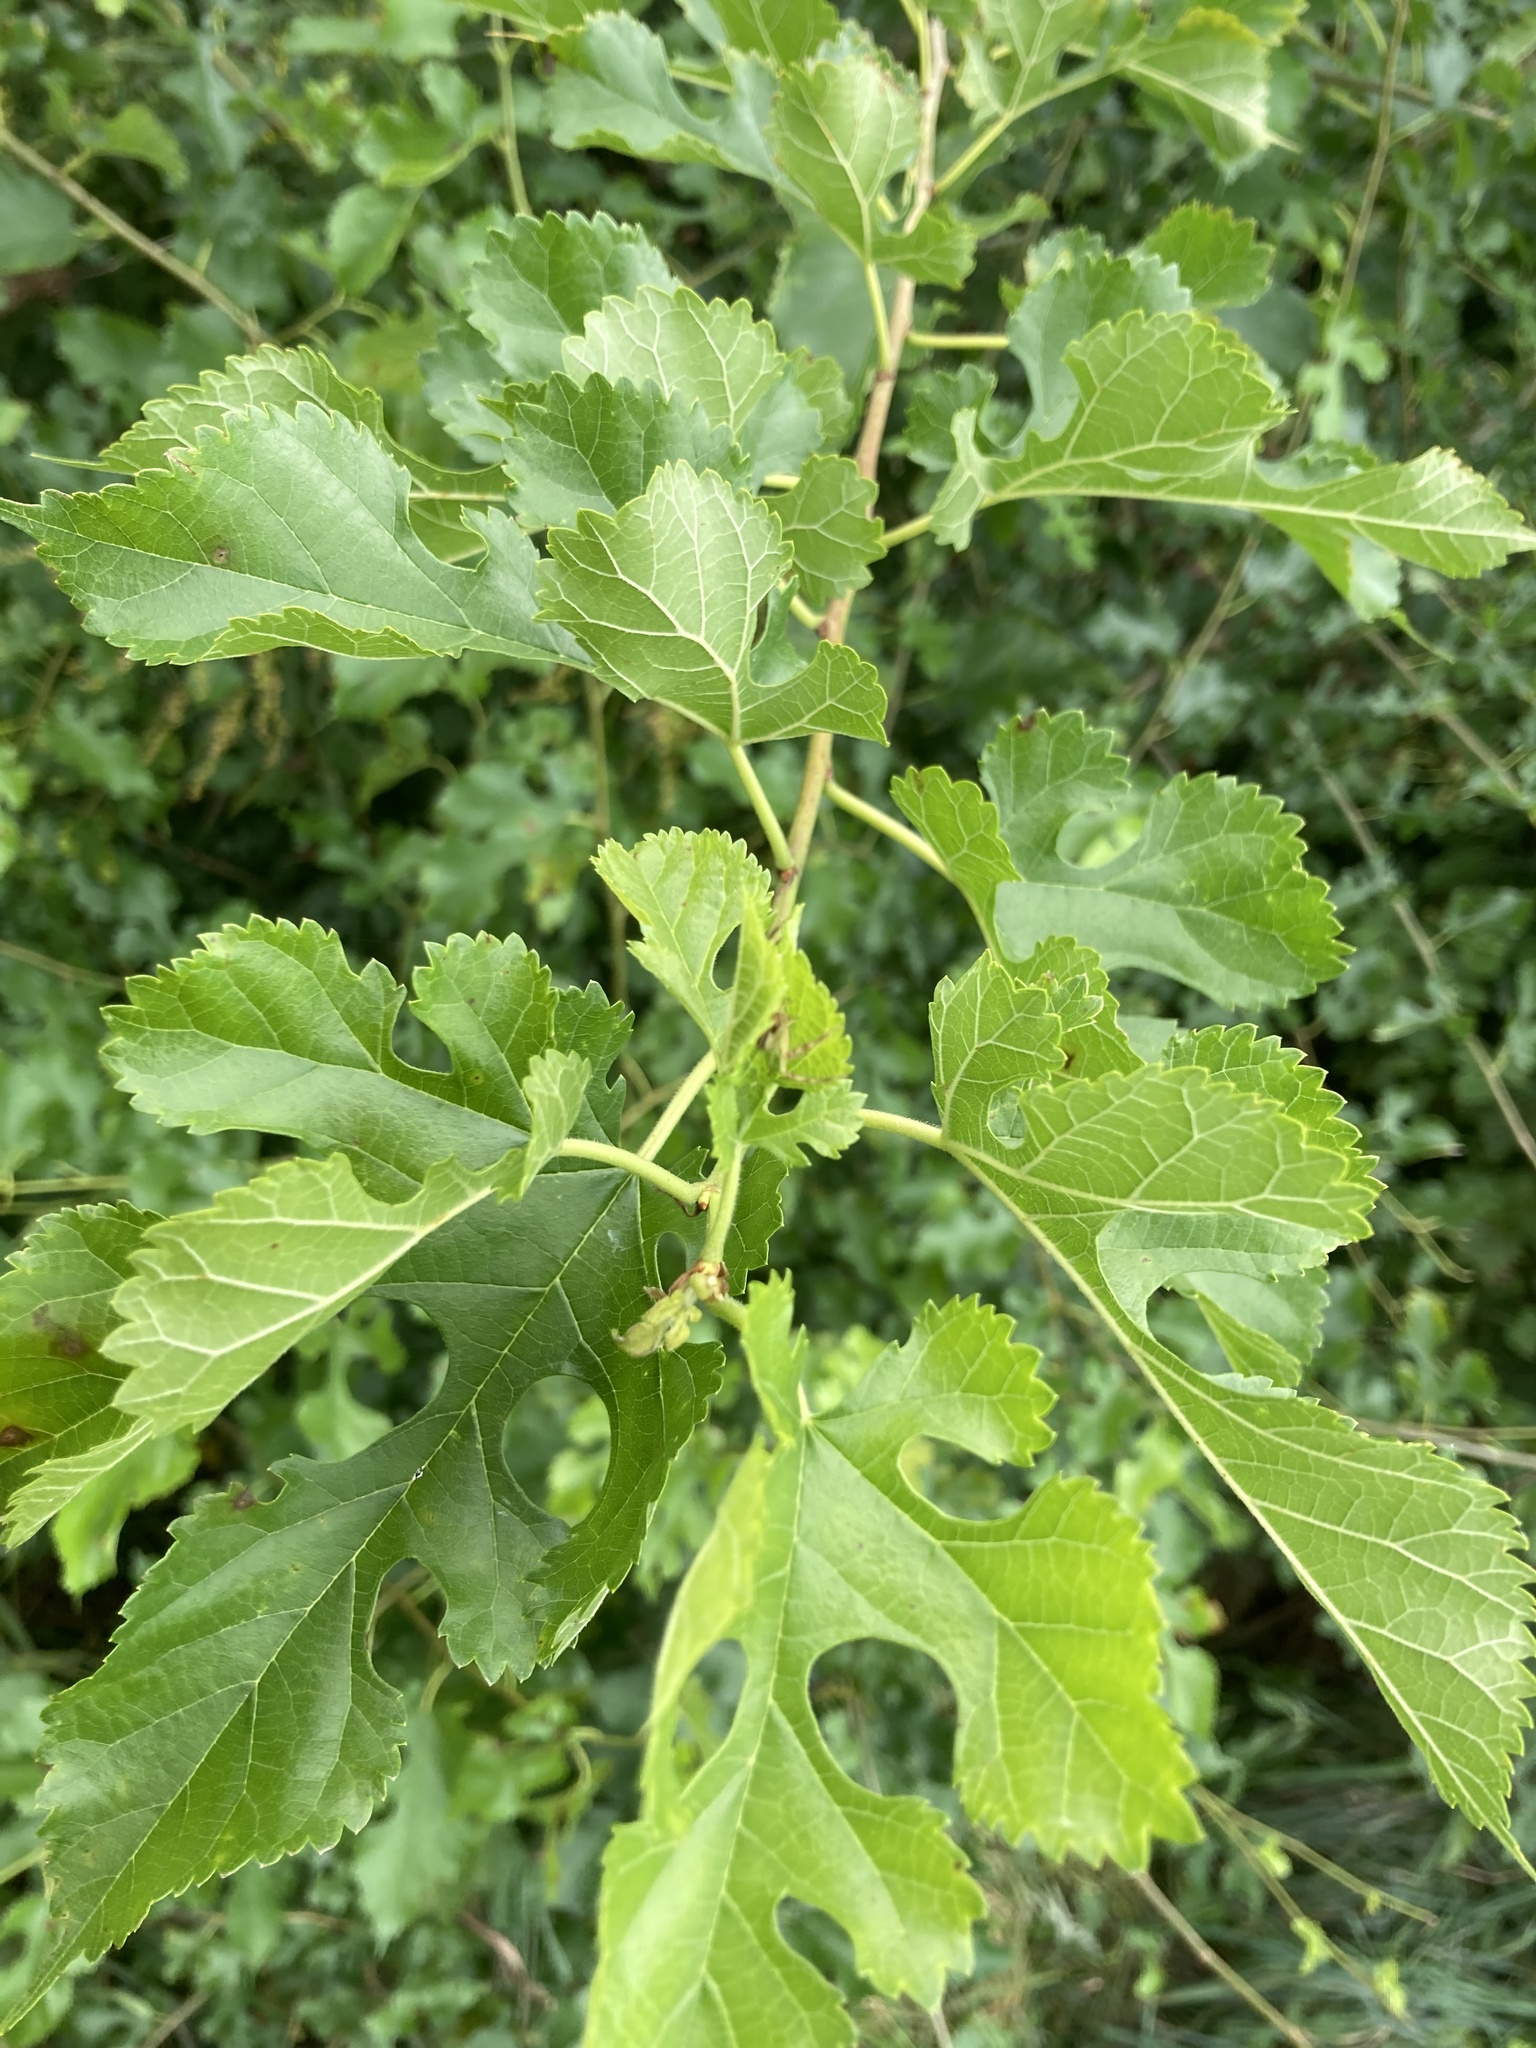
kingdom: Plantae
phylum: Tracheophyta
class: Magnoliopsida
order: Rosales
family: Moraceae
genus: Morus
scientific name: Morus alba
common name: White mulberry
